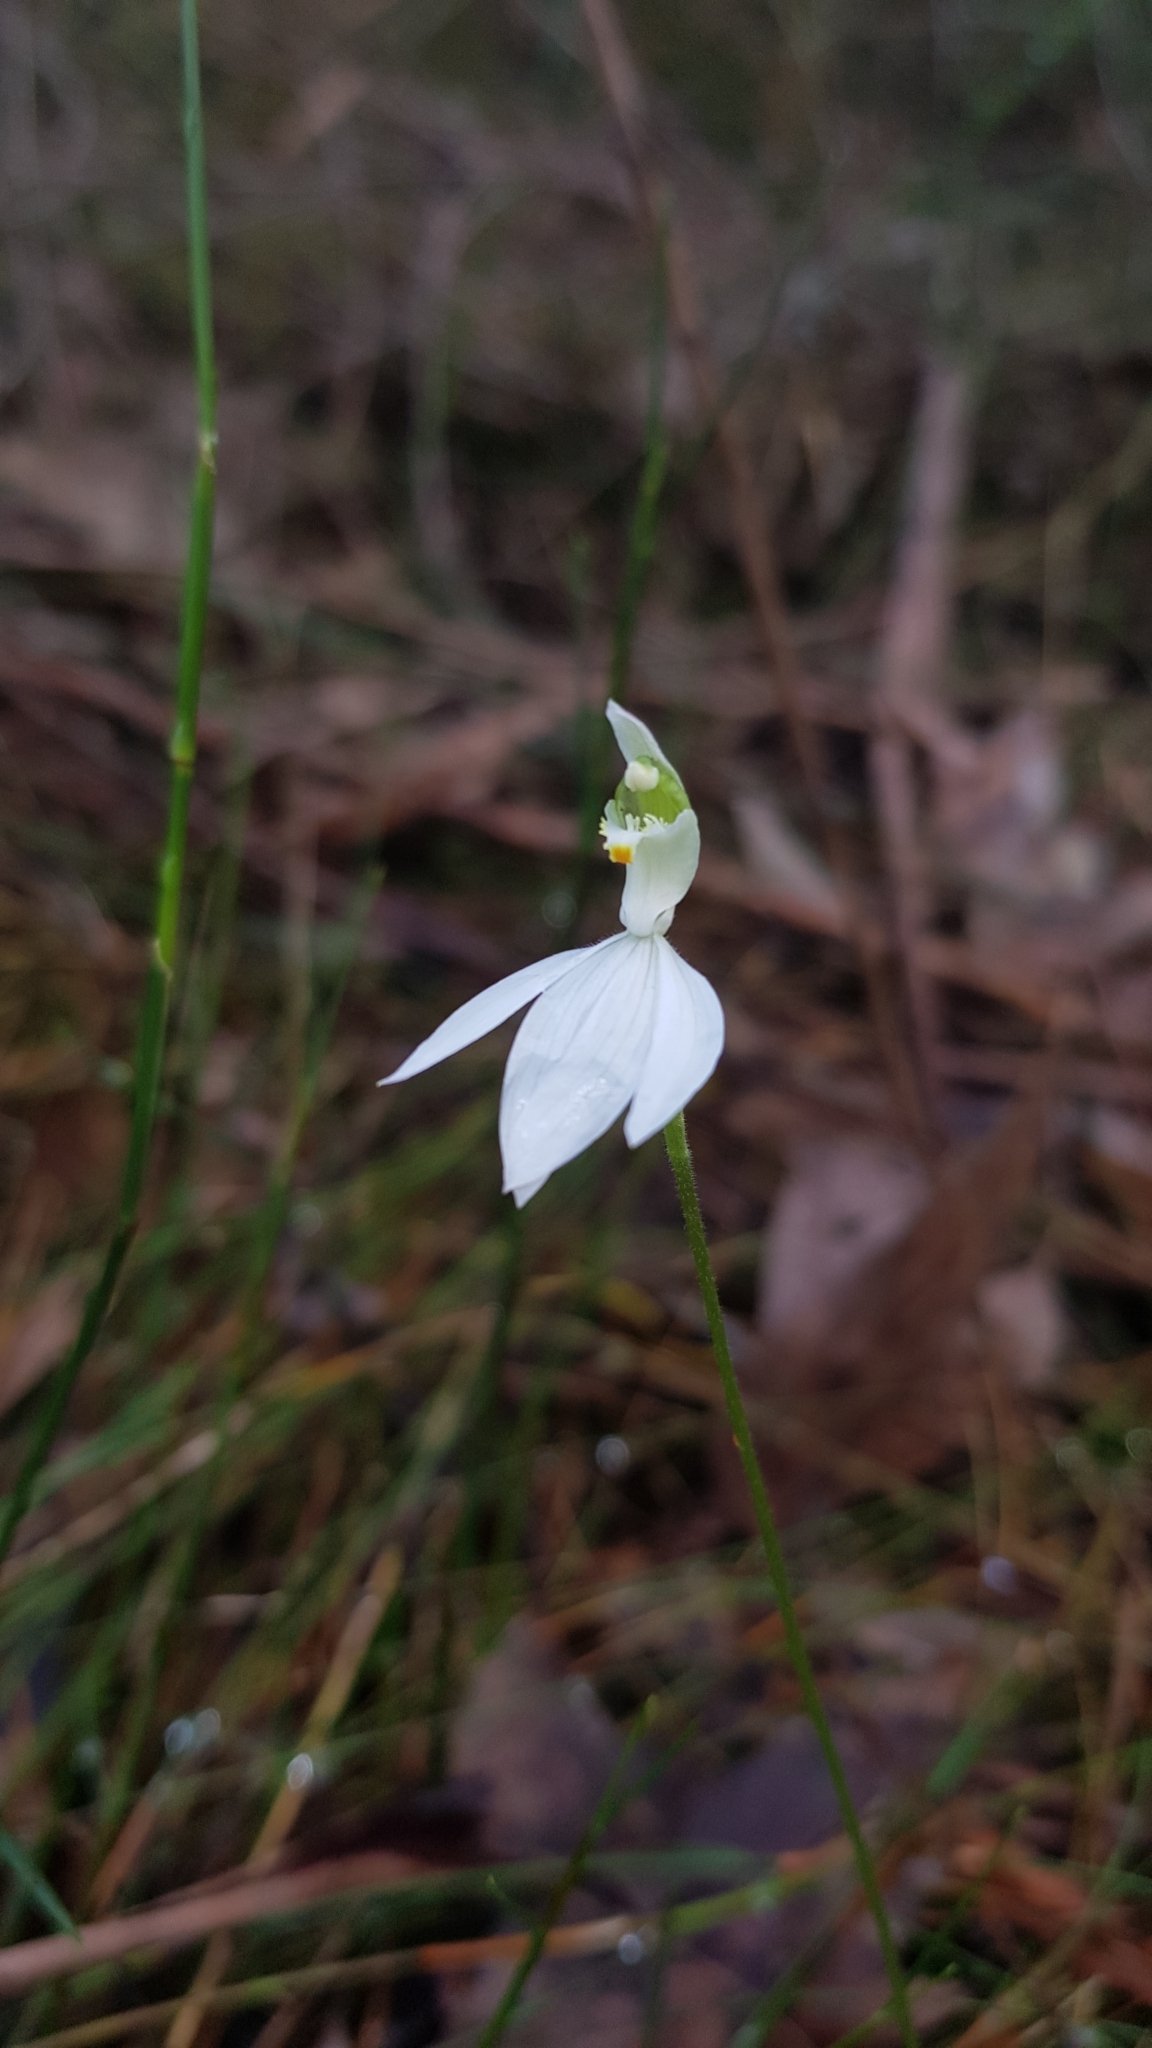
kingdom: Plantae
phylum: Tracheophyta
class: Liliopsida
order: Asparagales
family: Orchidaceae
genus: Caladenia
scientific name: Caladenia catenata
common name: White caladenia
